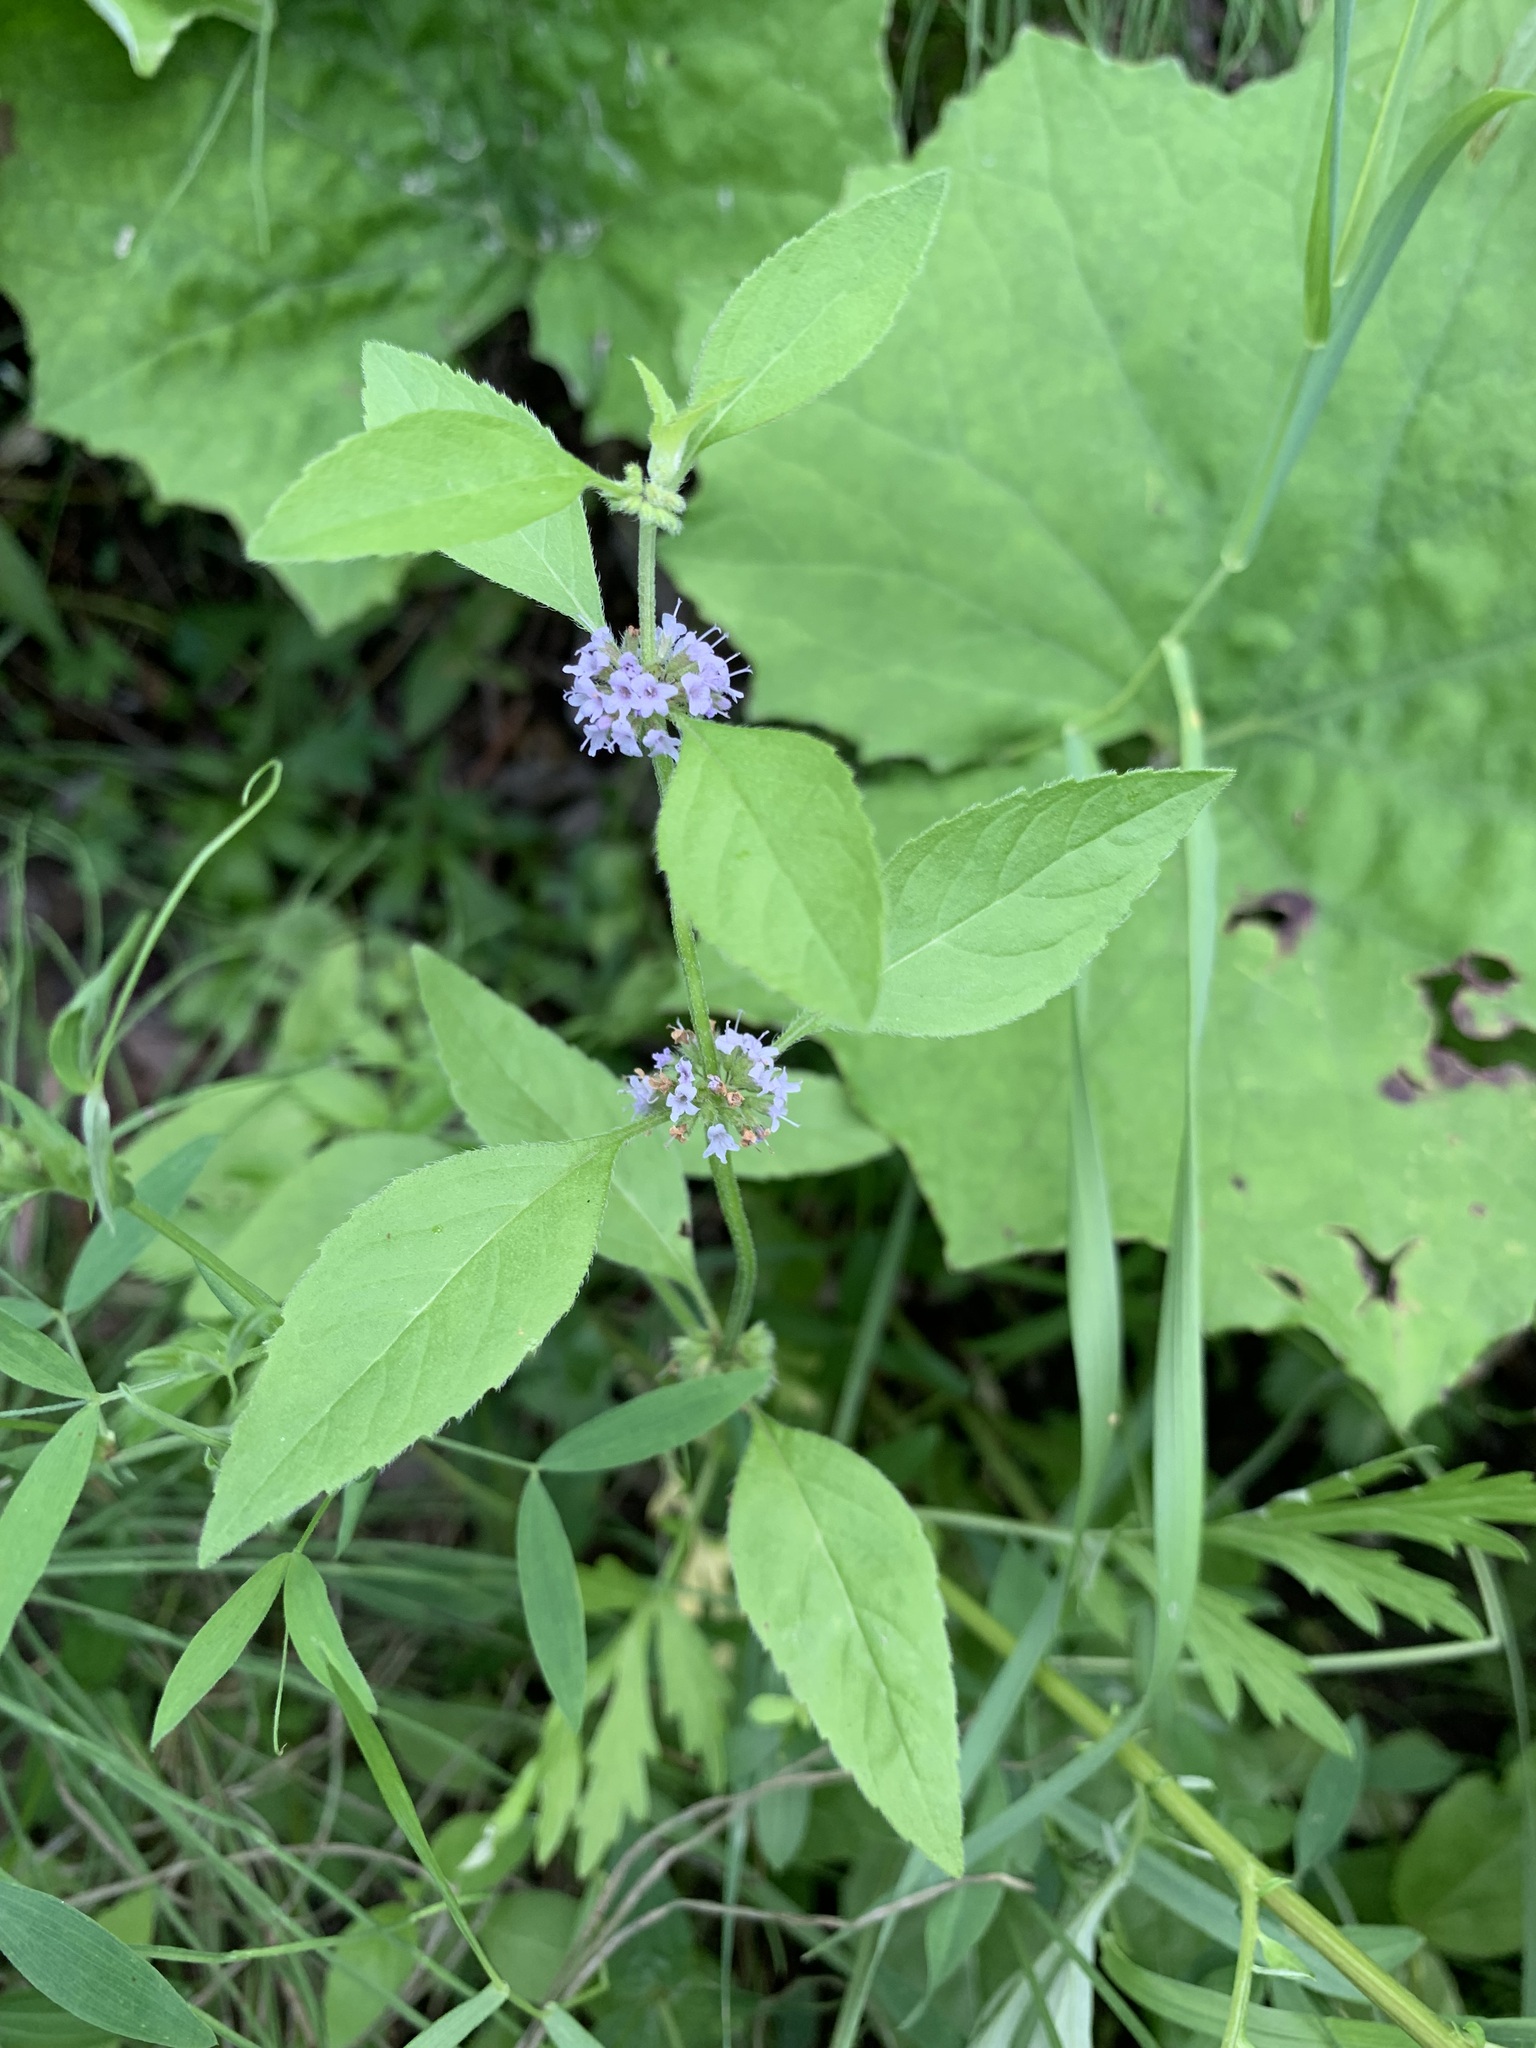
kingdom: Plantae
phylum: Tracheophyta
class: Magnoliopsida
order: Lamiales
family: Lamiaceae
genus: Mentha
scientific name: Mentha arvensis
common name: Corn mint
